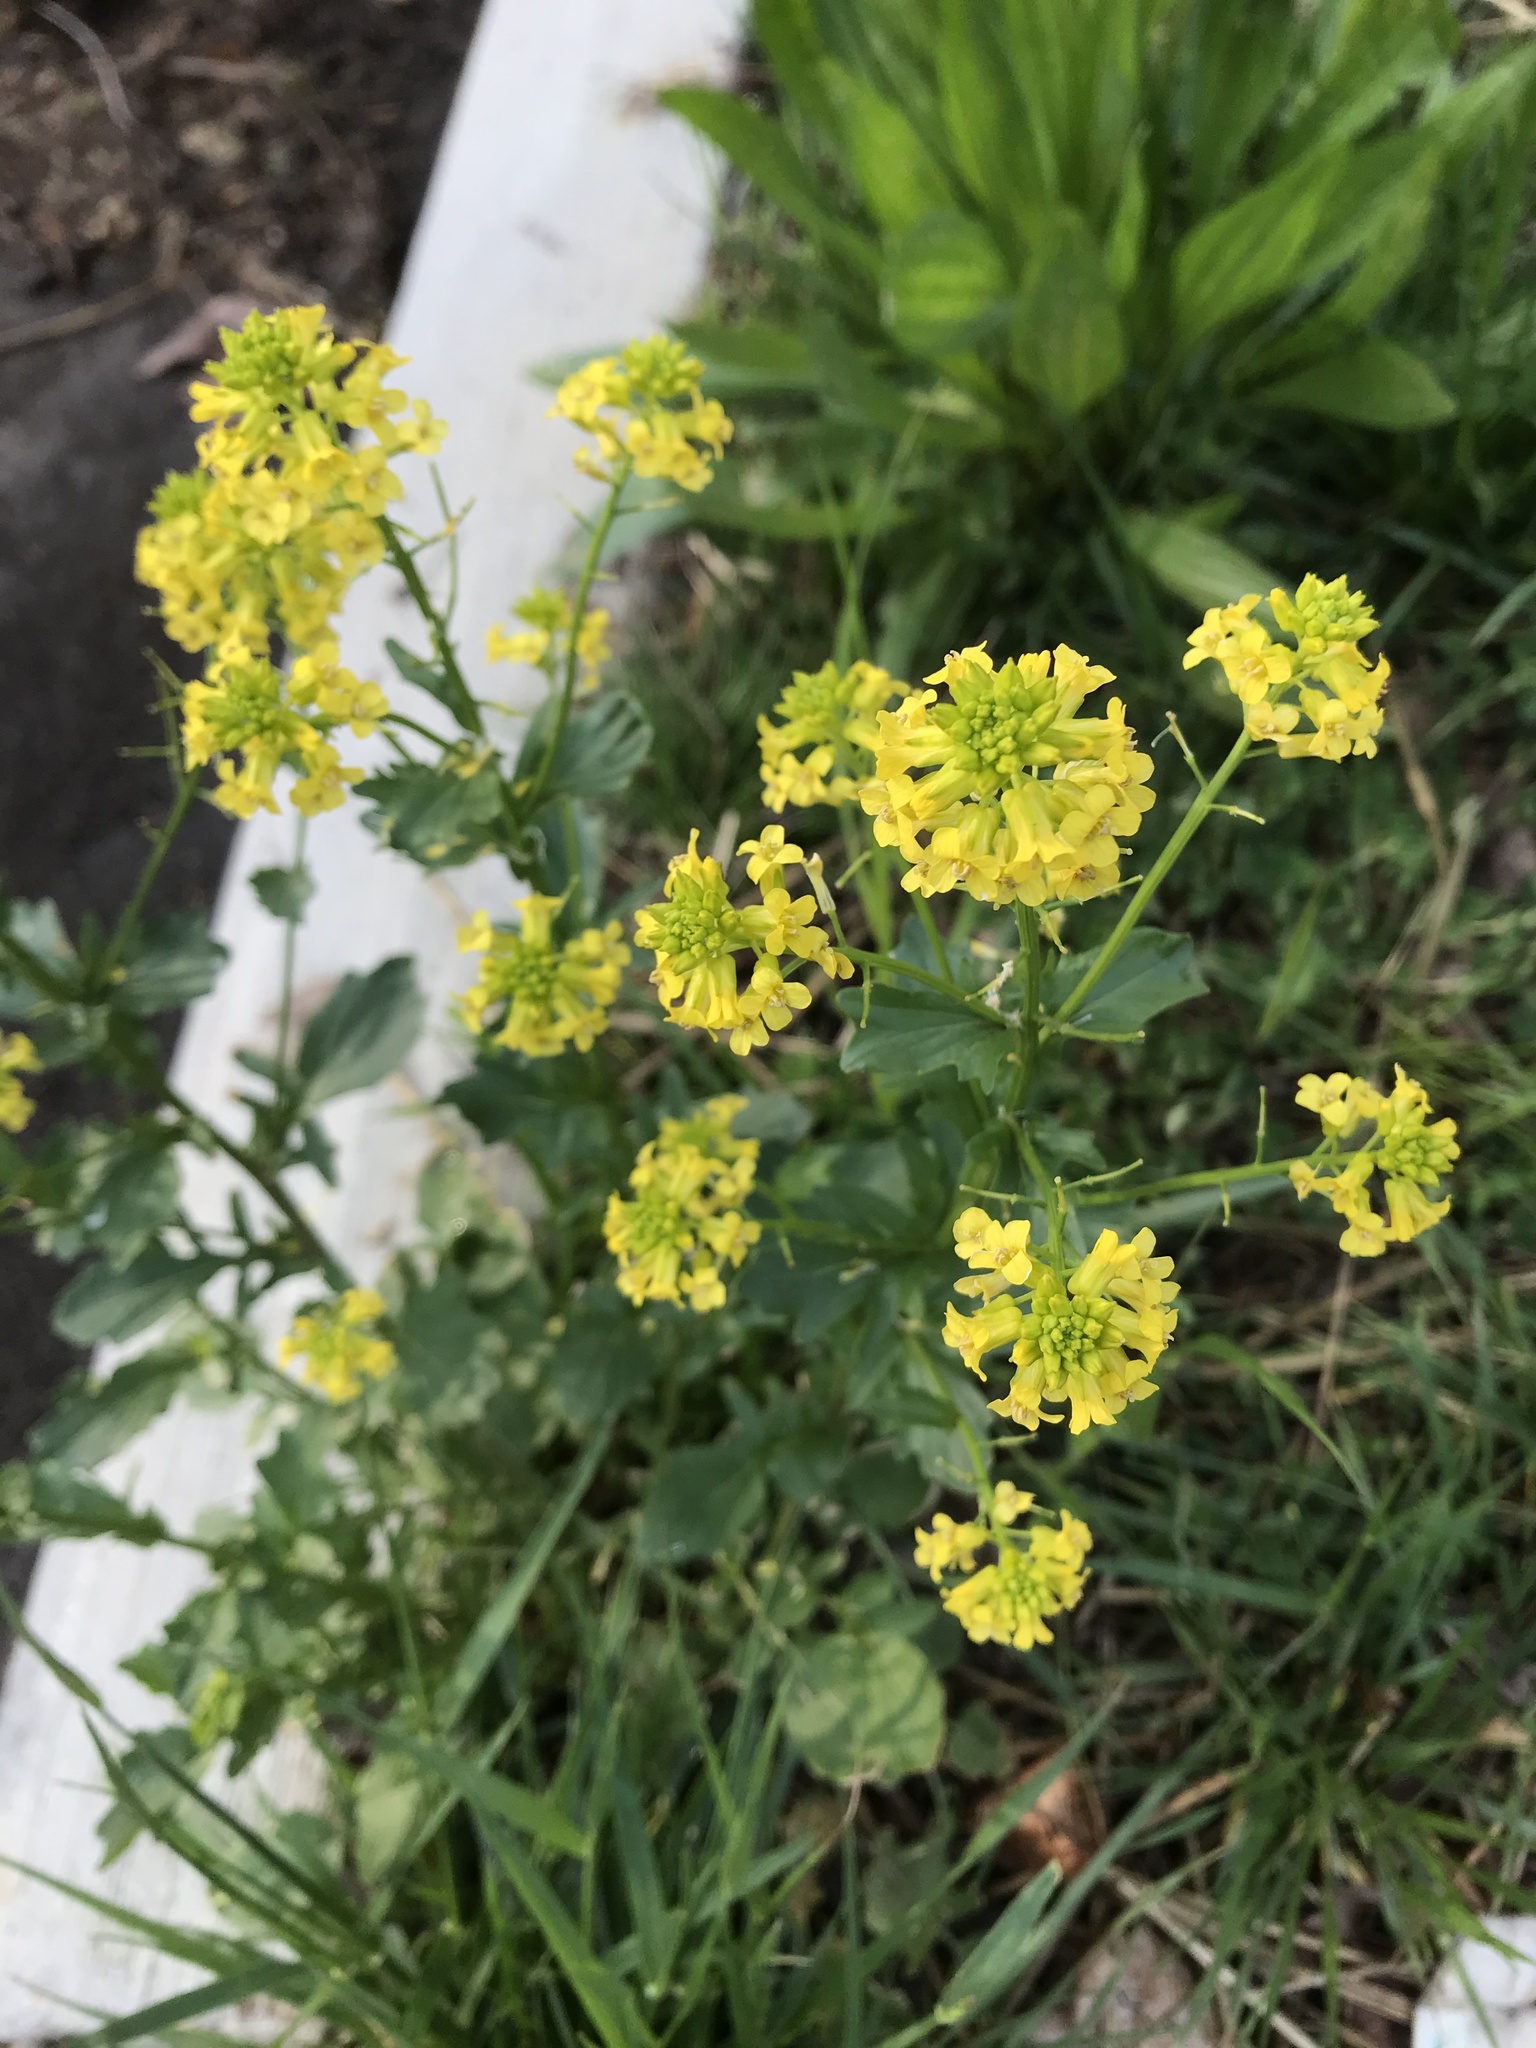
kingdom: Plantae
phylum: Tracheophyta
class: Magnoliopsida
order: Brassicales
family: Brassicaceae
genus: Barbarea
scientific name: Barbarea vulgaris
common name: Cressy-greens
